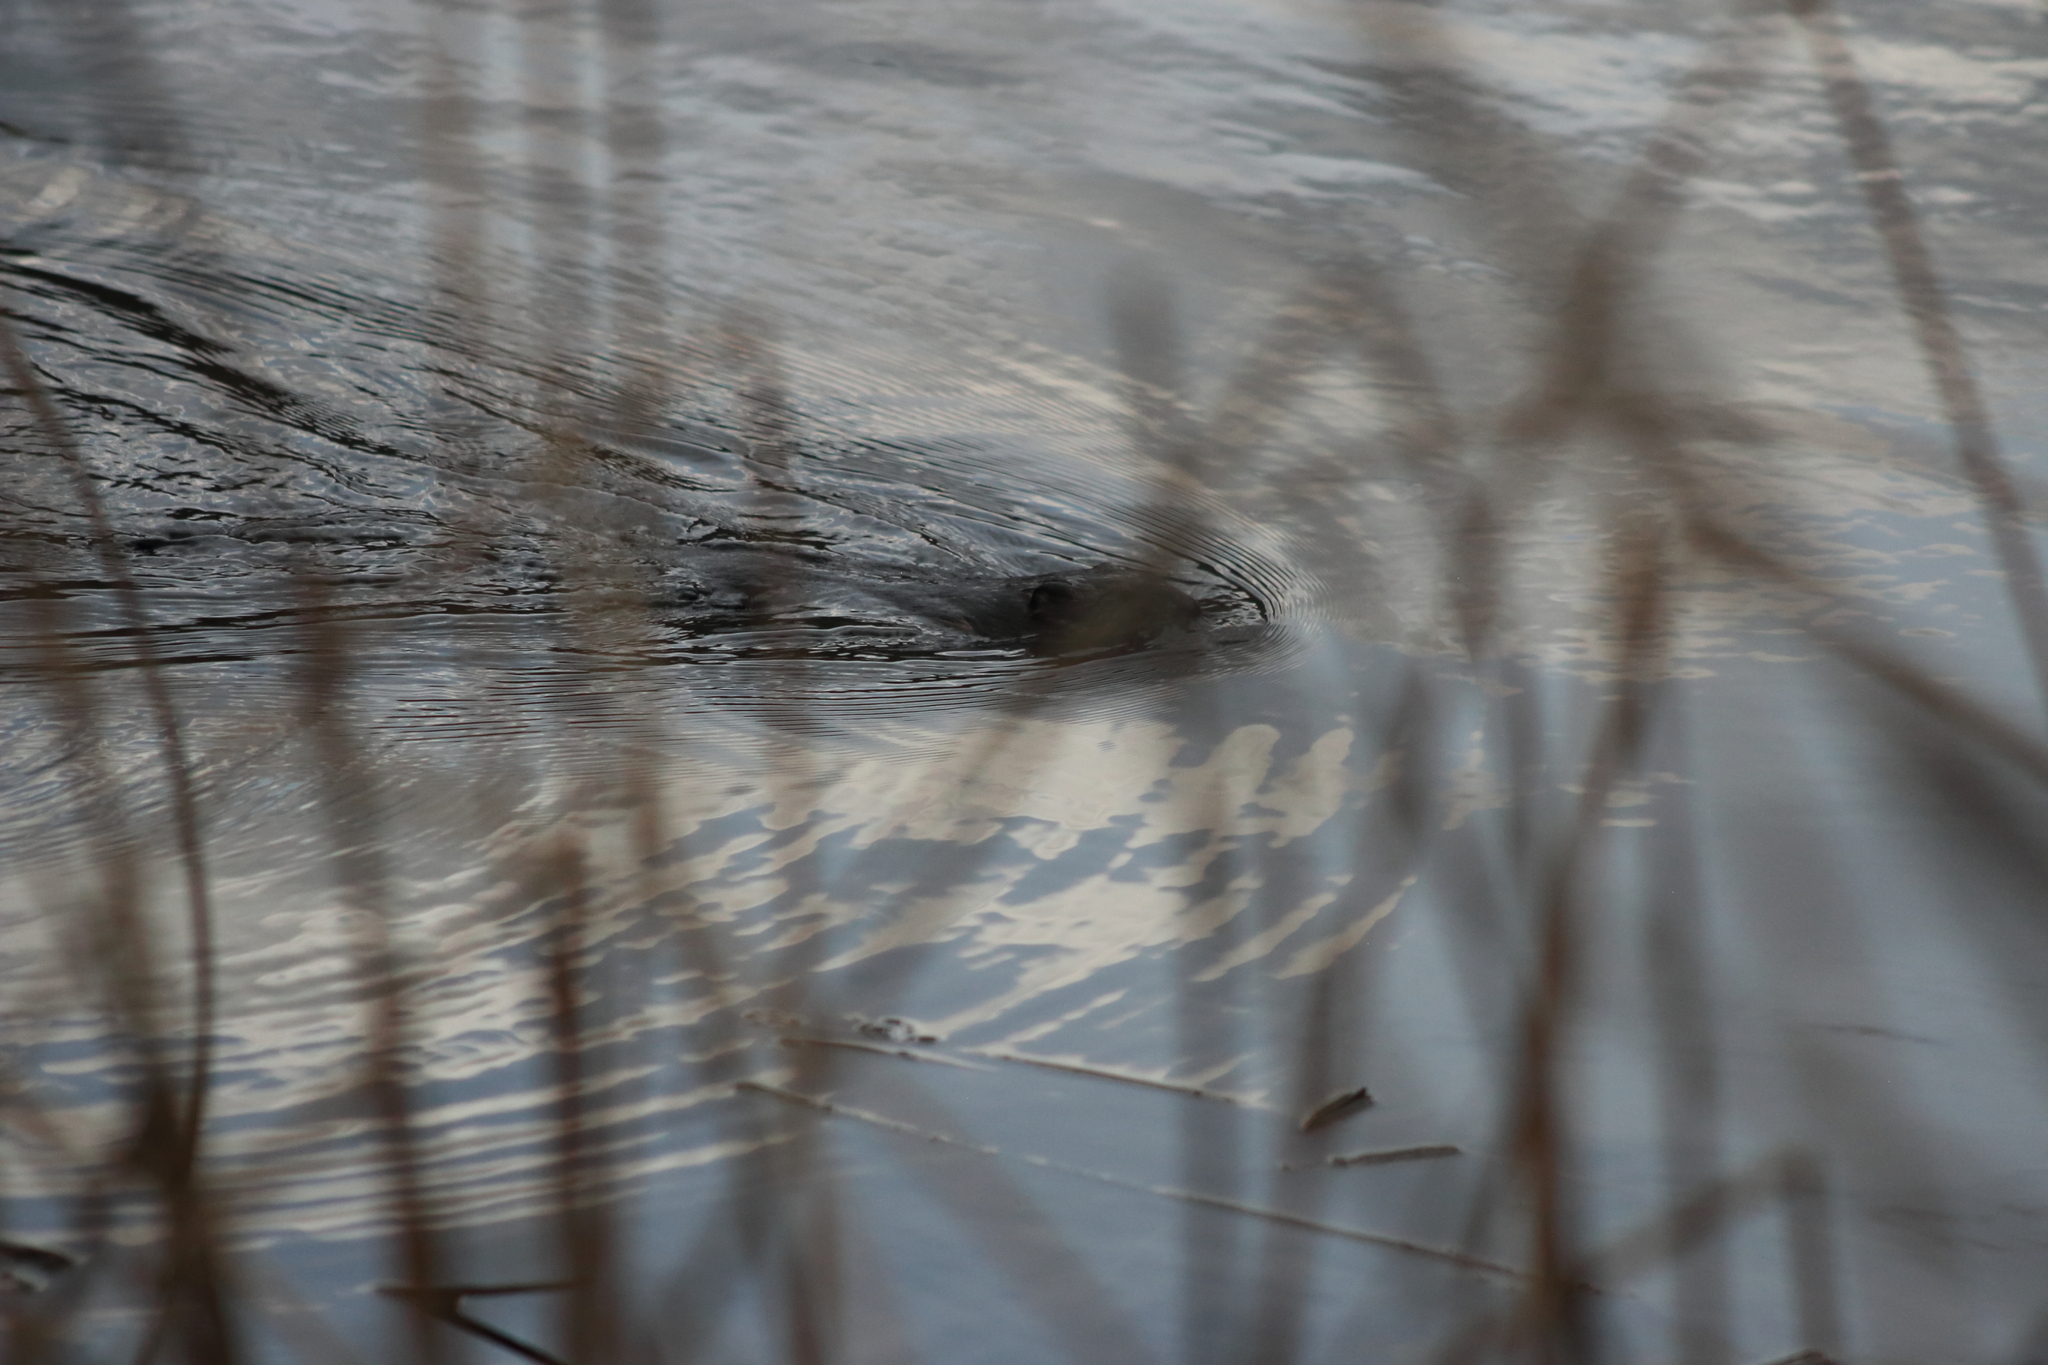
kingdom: Animalia
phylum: Chordata
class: Mammalia
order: Rodentia
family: Cricetidae
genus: Ondatra
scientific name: Ondatra zibethicus
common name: Muskrat
